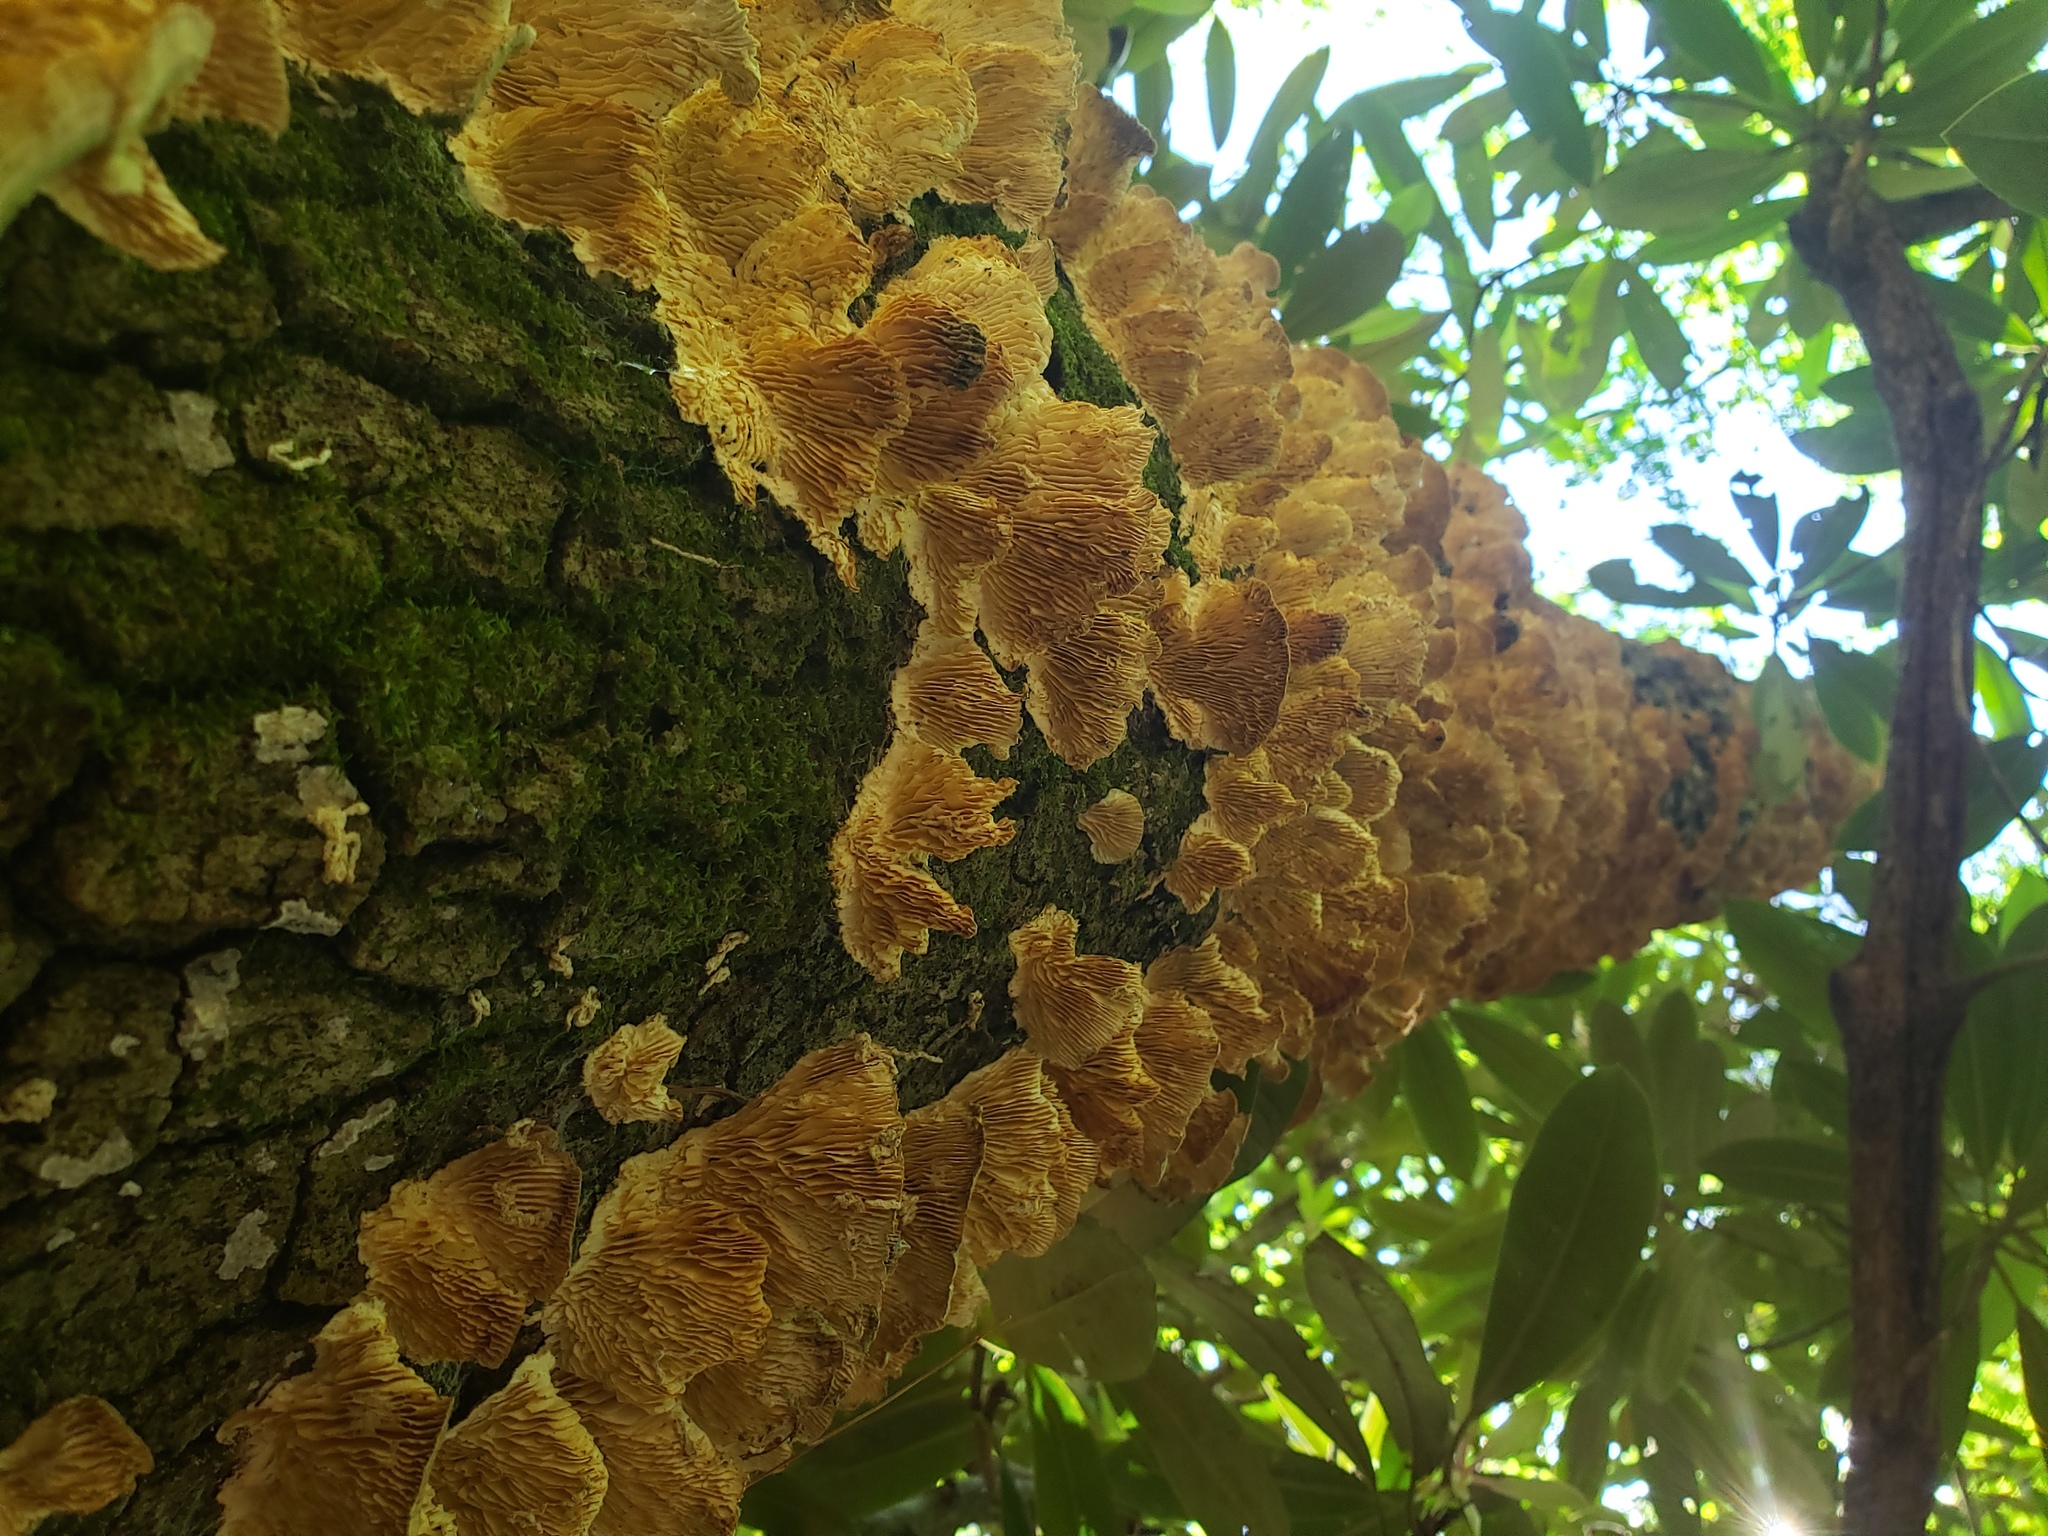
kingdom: Fungi
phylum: Basidiomycota
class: Agaricomycetes
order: Polyporales
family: Polyporaceae
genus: Lenzites
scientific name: Lenzites betulinus
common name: Birch mazegill
